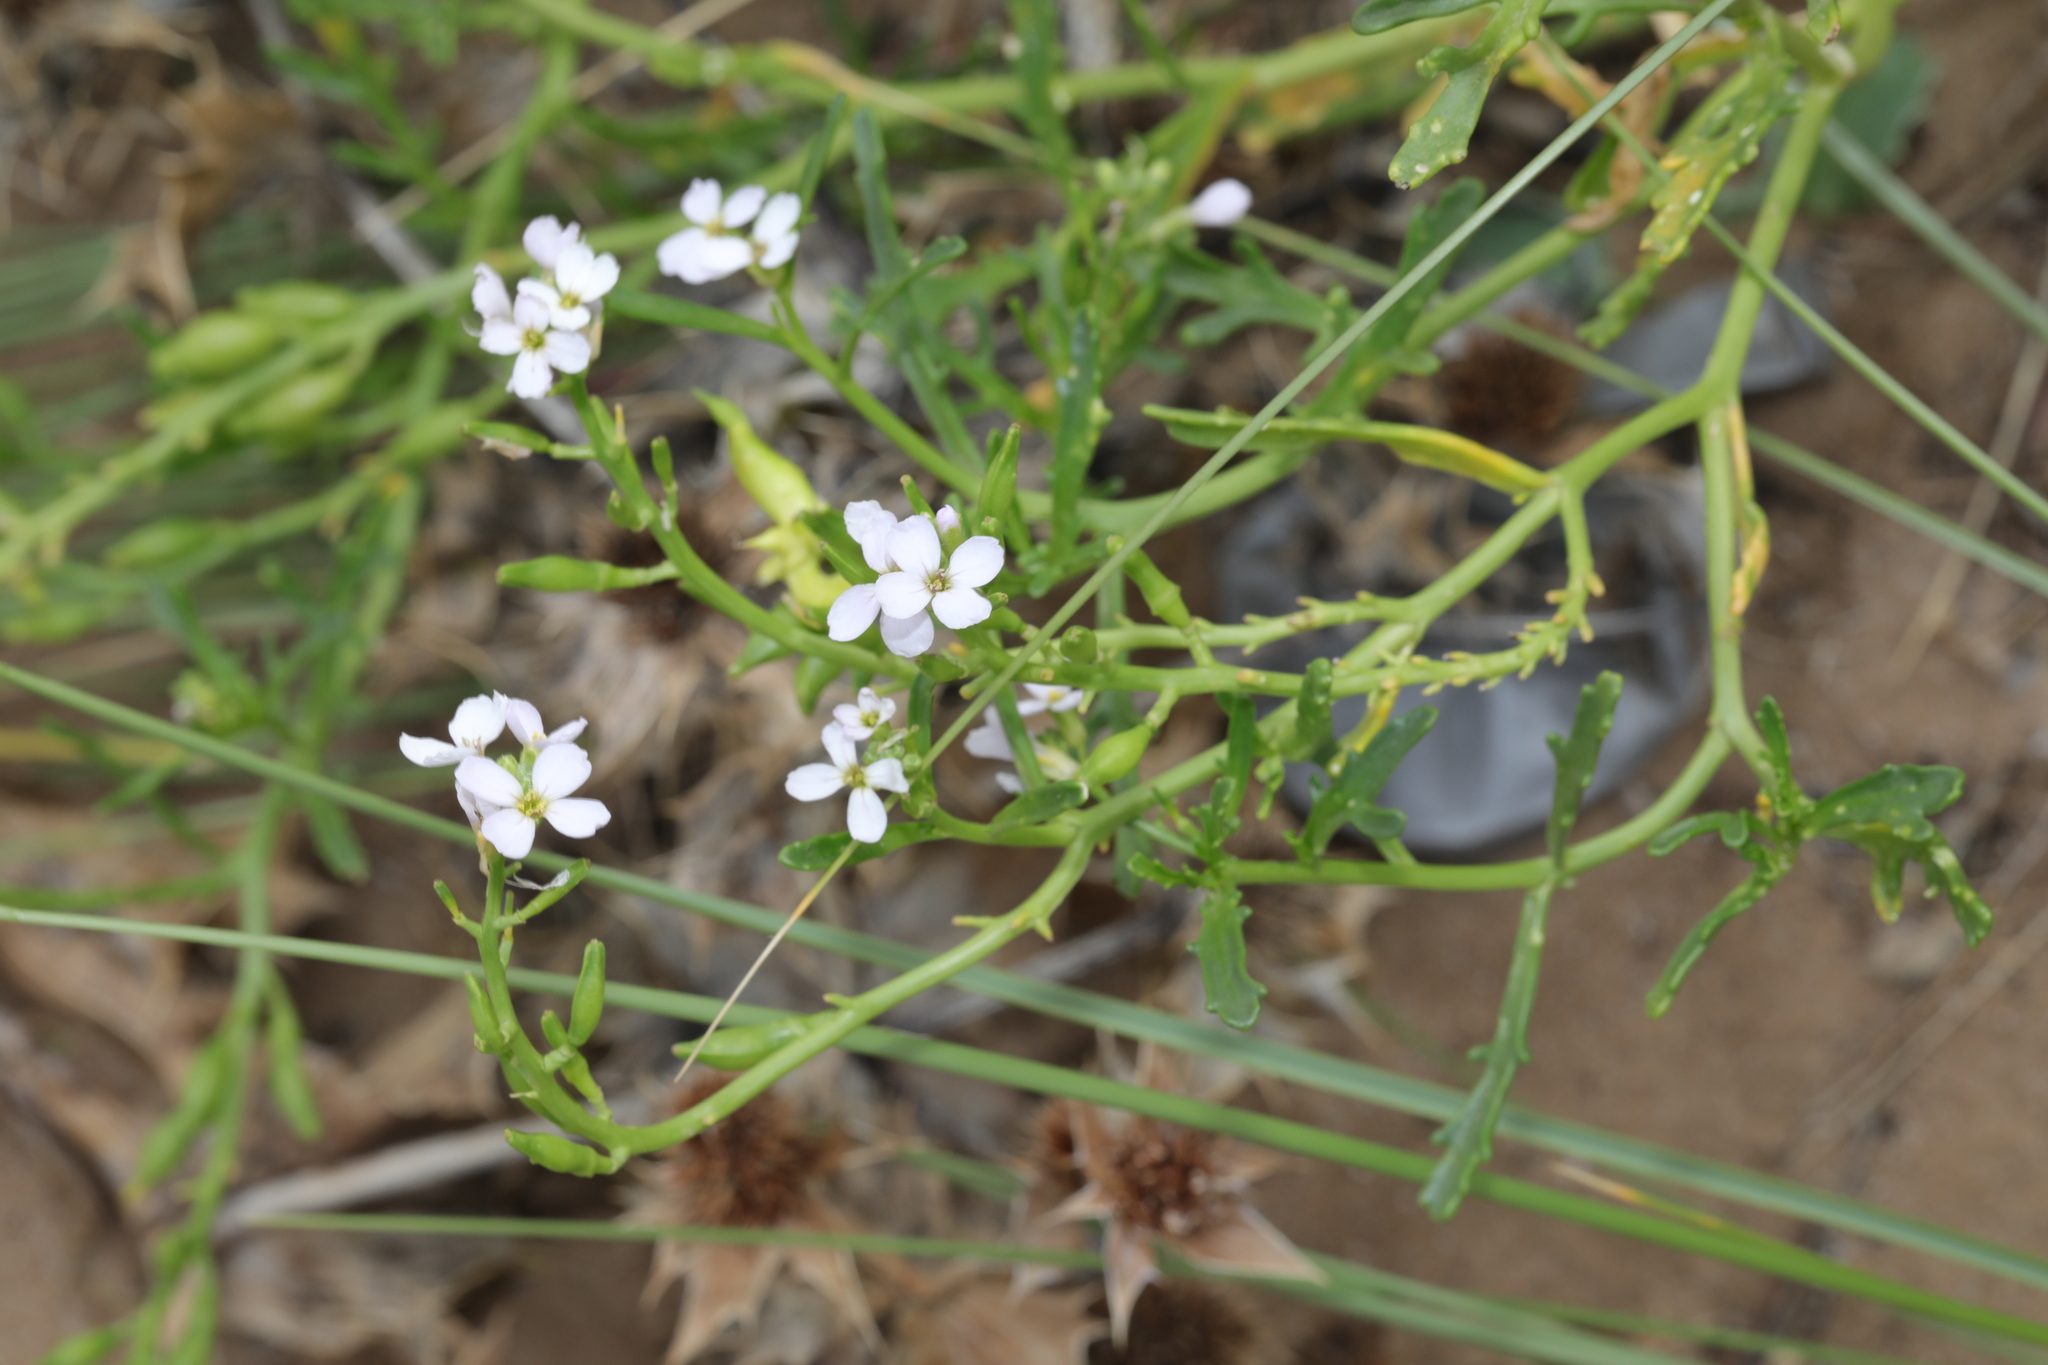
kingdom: Plantae
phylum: Tracheophyta
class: Magnoliopsida
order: Brassicales
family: Brassicaceae
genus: Cakile
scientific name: Cakile maritima
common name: Sea rocket
